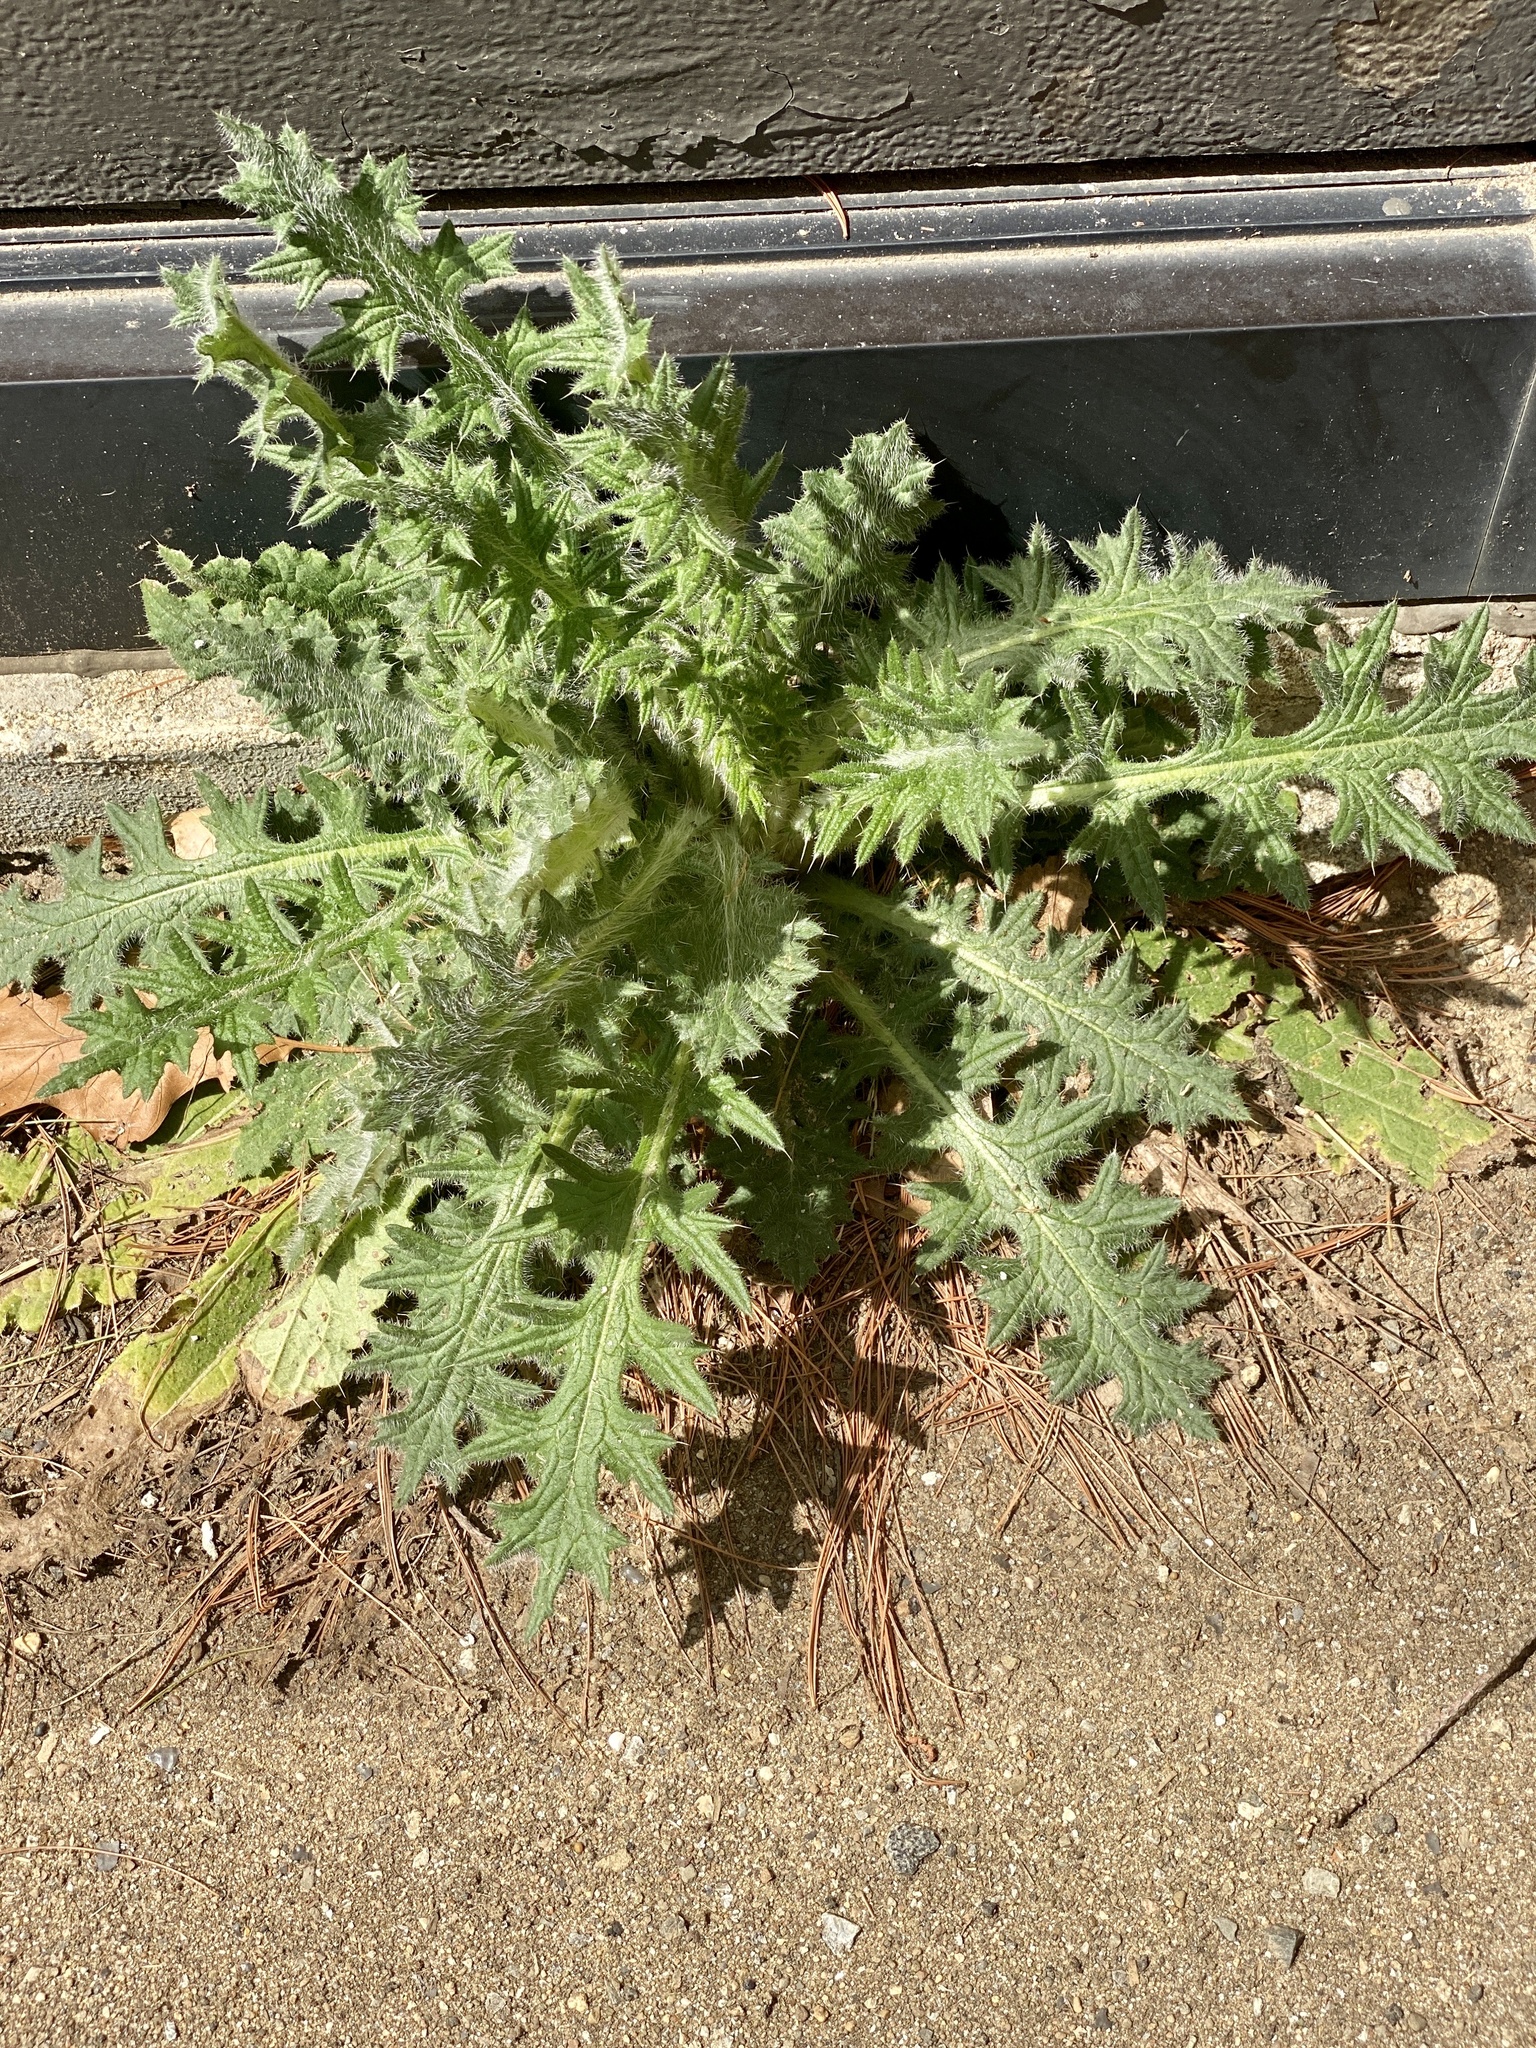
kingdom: Plantae
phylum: Tracheophyta
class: Magnoliopsida
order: Asterales
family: Asteraceae
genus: Cirsium
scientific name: Cirsium vulgare
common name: Bull thistle
